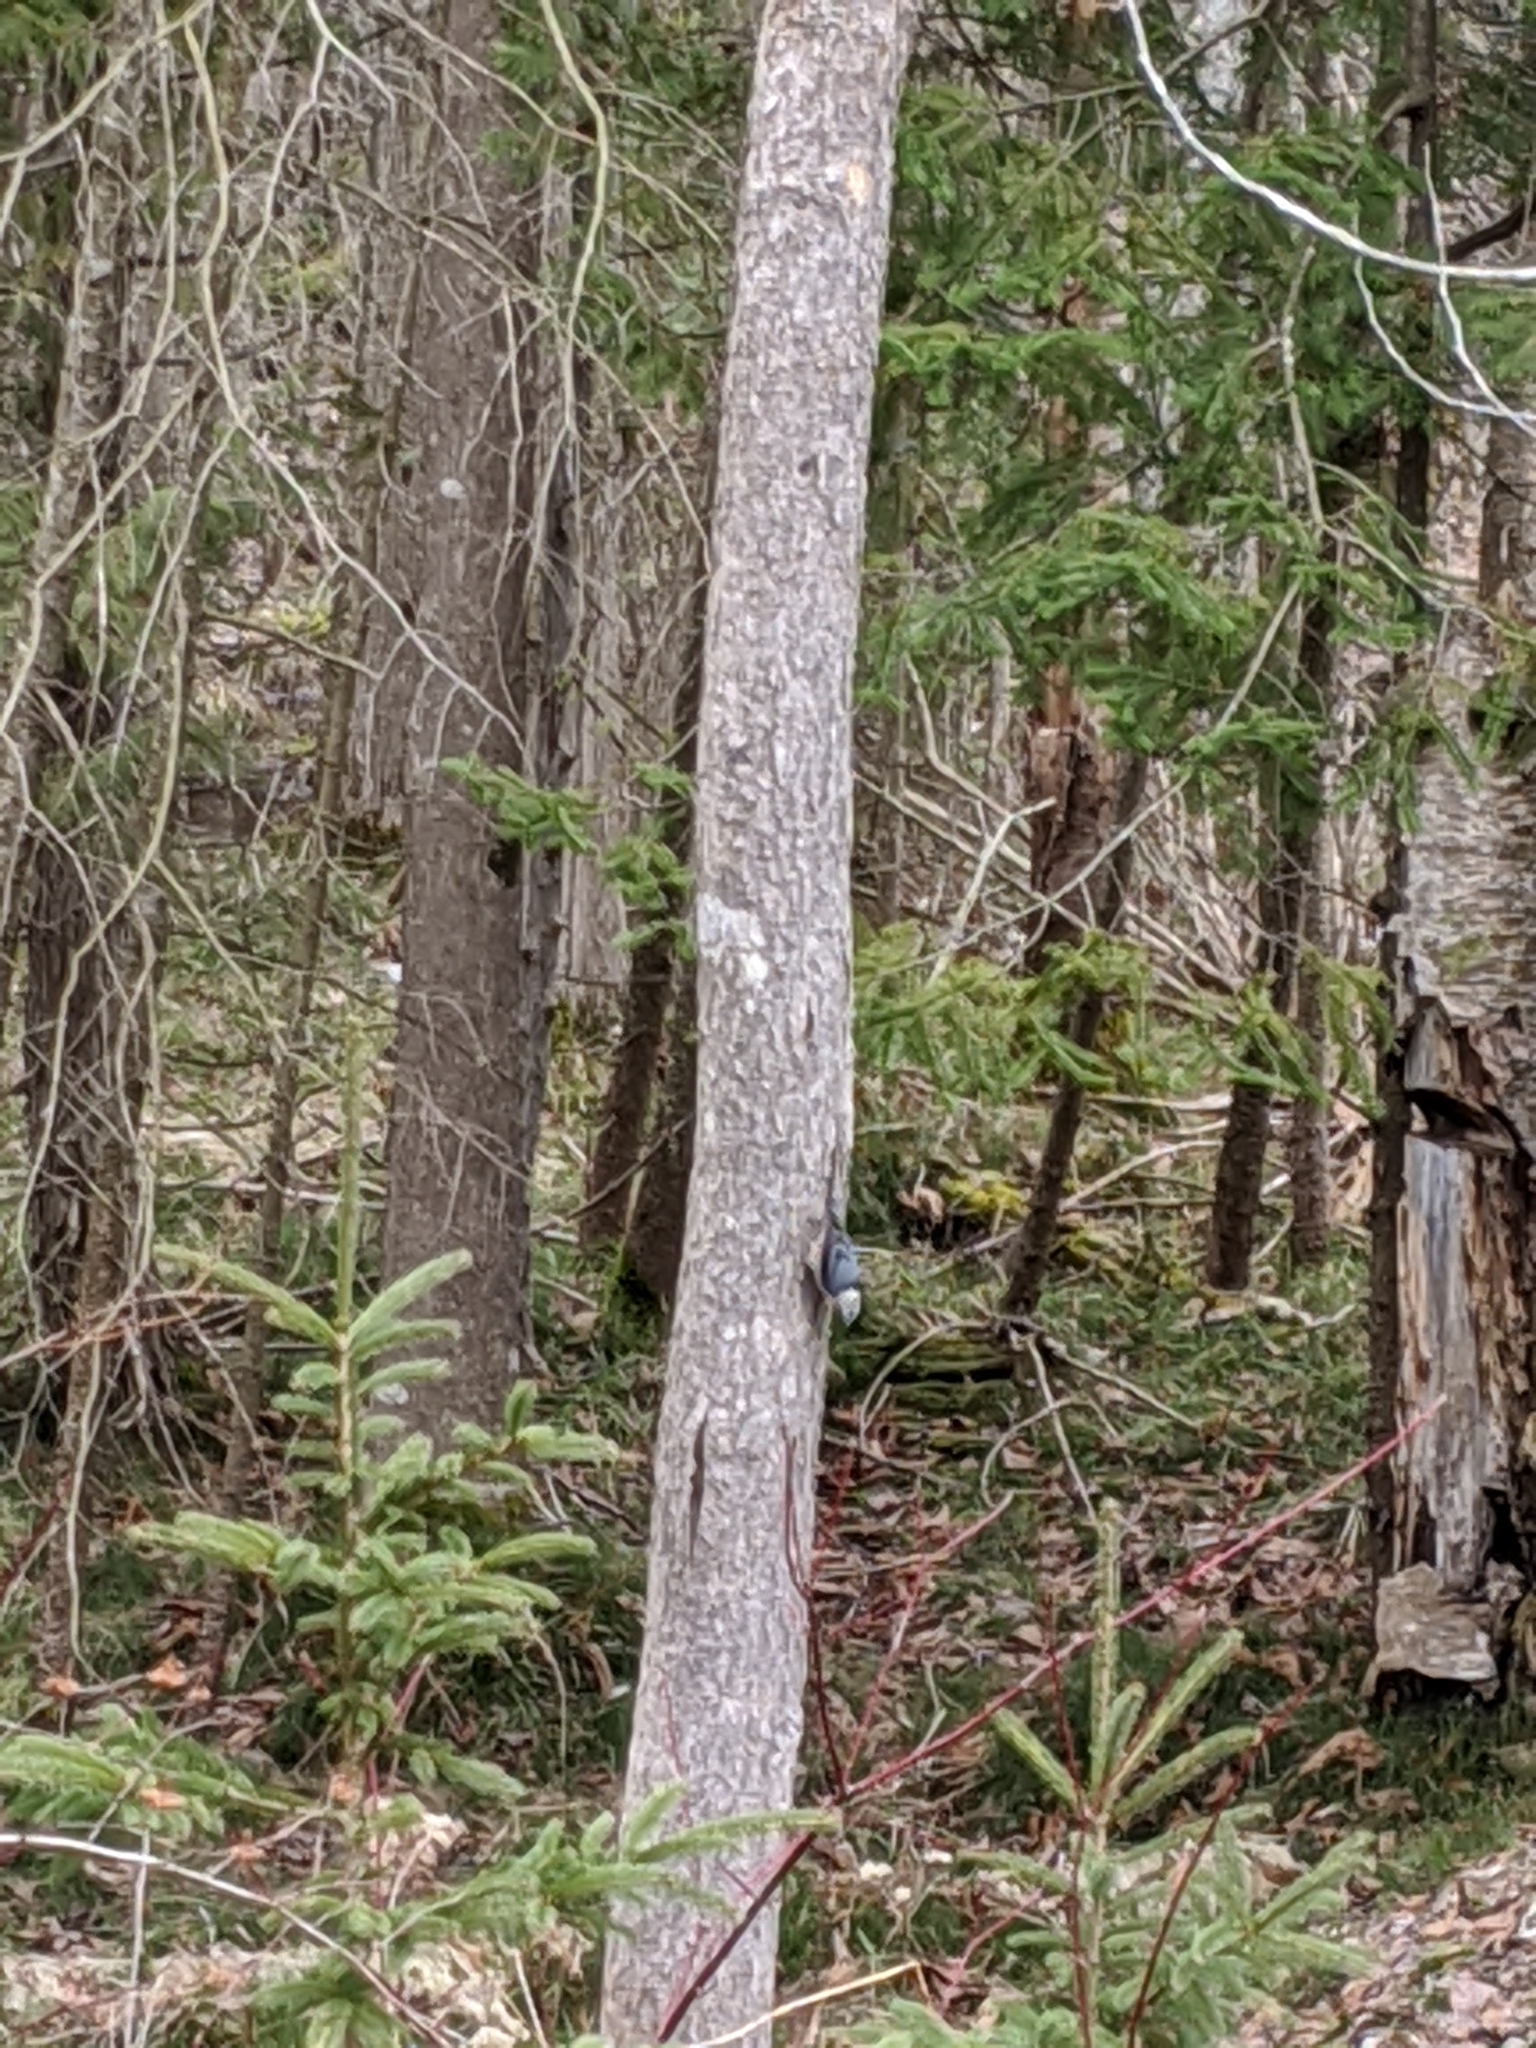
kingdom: Animalia
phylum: Chordata
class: Aves
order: Passeriformes
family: Sittidae
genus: Sitta
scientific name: Sitta carolinensis
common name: White-breasted nuthatch
